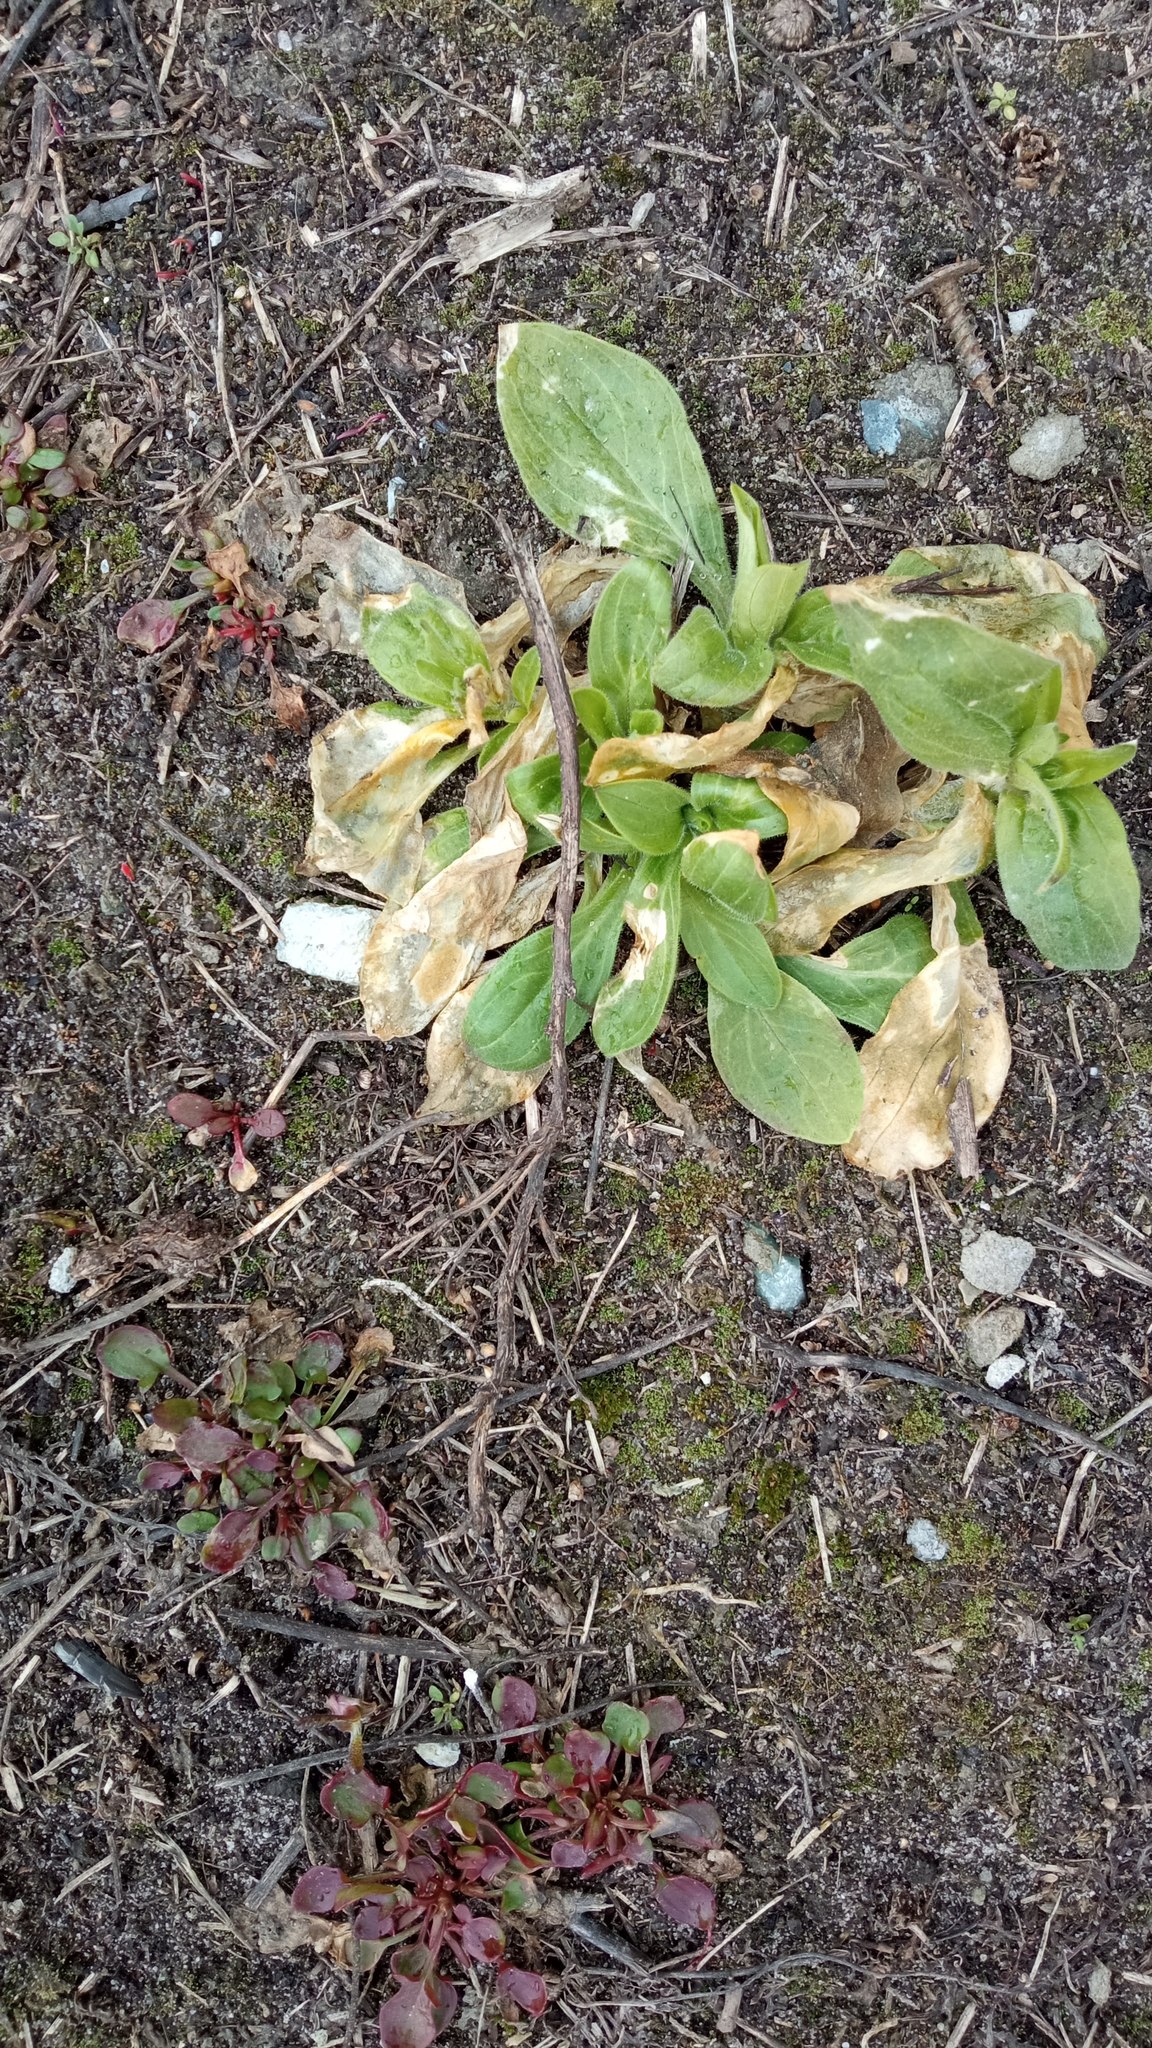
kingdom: Plantae
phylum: Tracheophyta
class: Magnoliopsida
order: Caryophyllales
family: Caryophyllaceae
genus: Silene
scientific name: Silene latifolia
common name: White campion
